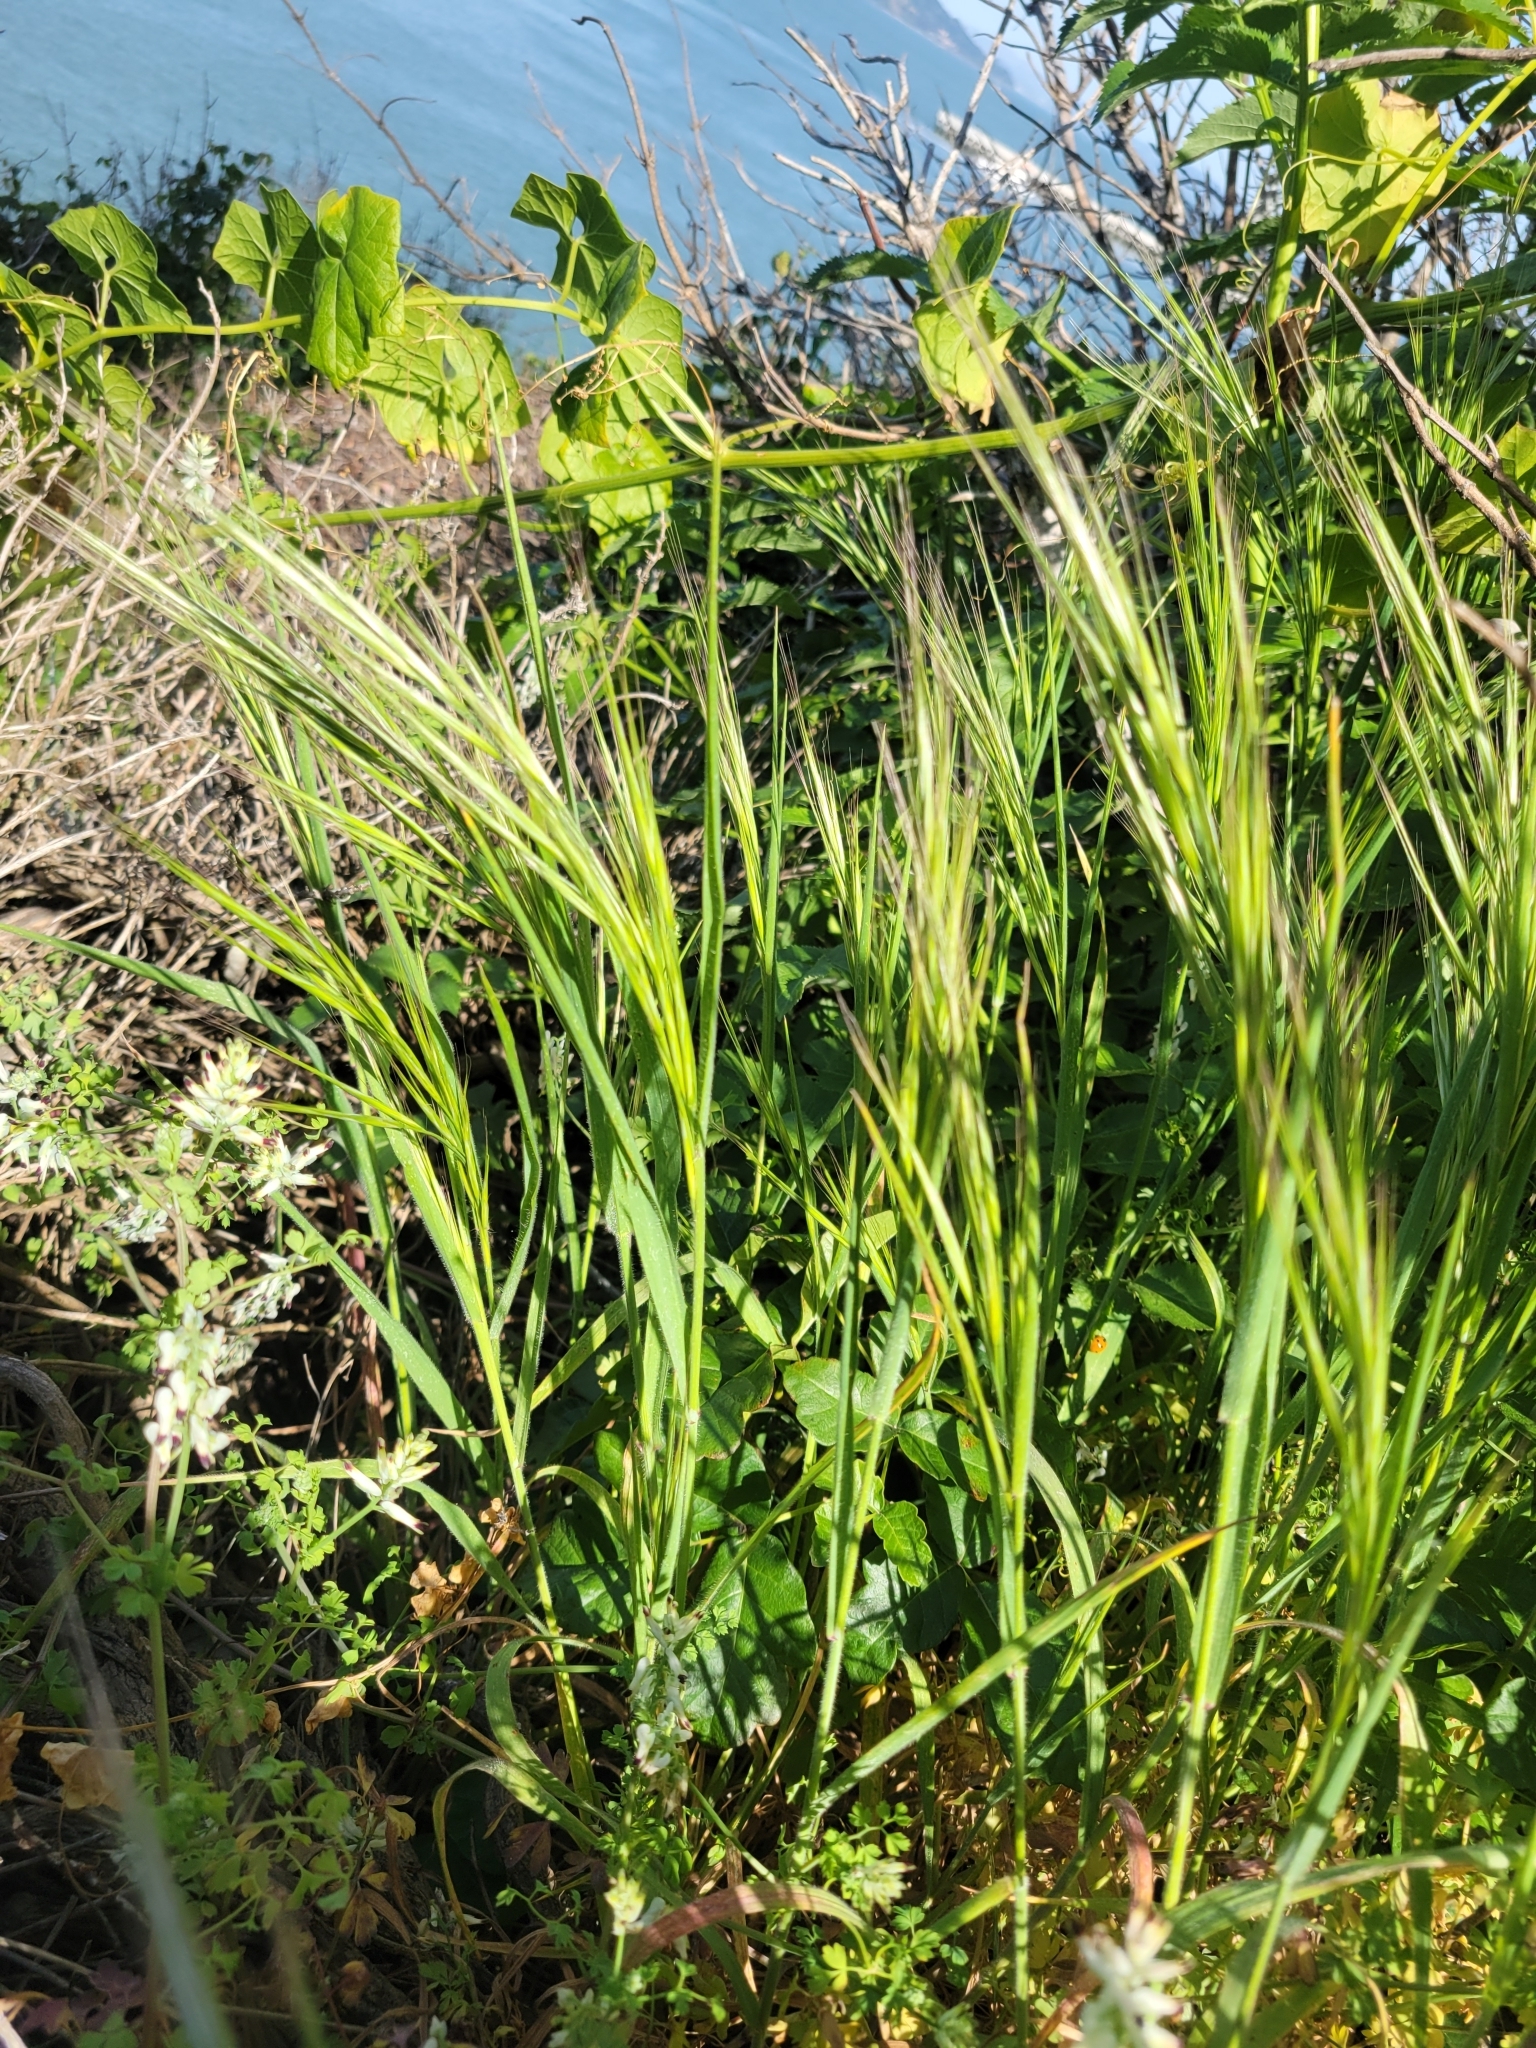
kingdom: Plantae
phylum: Tracheophyta
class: Liliopsida
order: Poales
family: Poaceae
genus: Bromus
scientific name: Bromus diandrus
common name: Ripgut brome
